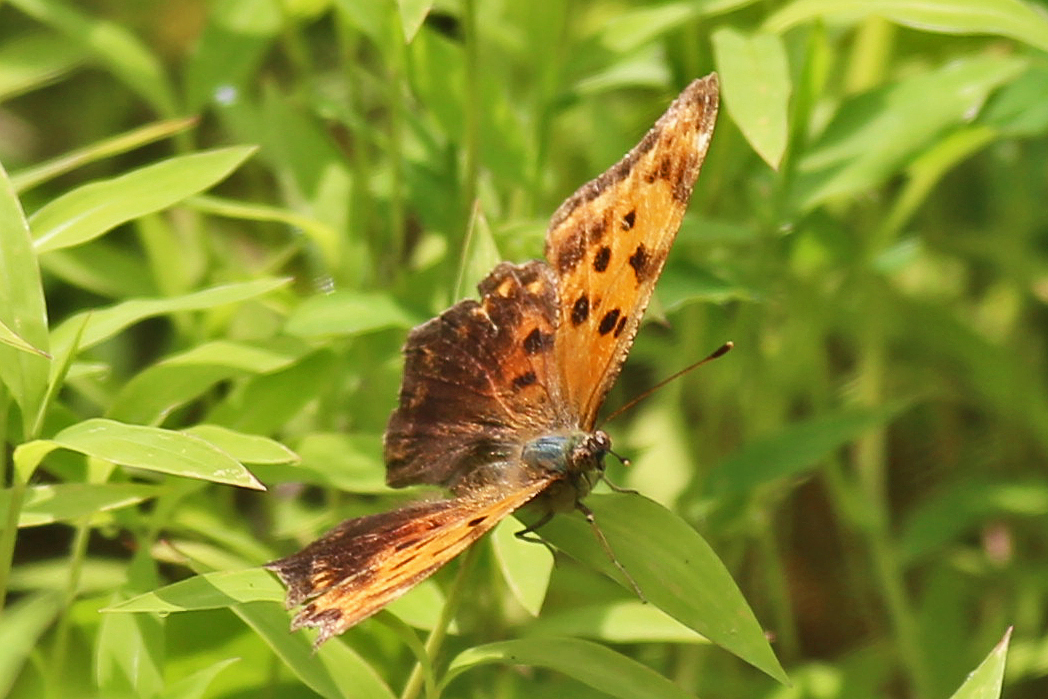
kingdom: Animalia
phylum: Arthropoda
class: Insecta
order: Lepidoptera
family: Nymphalidae
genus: Polygonia
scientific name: Polygonia comma
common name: Eastern comma
